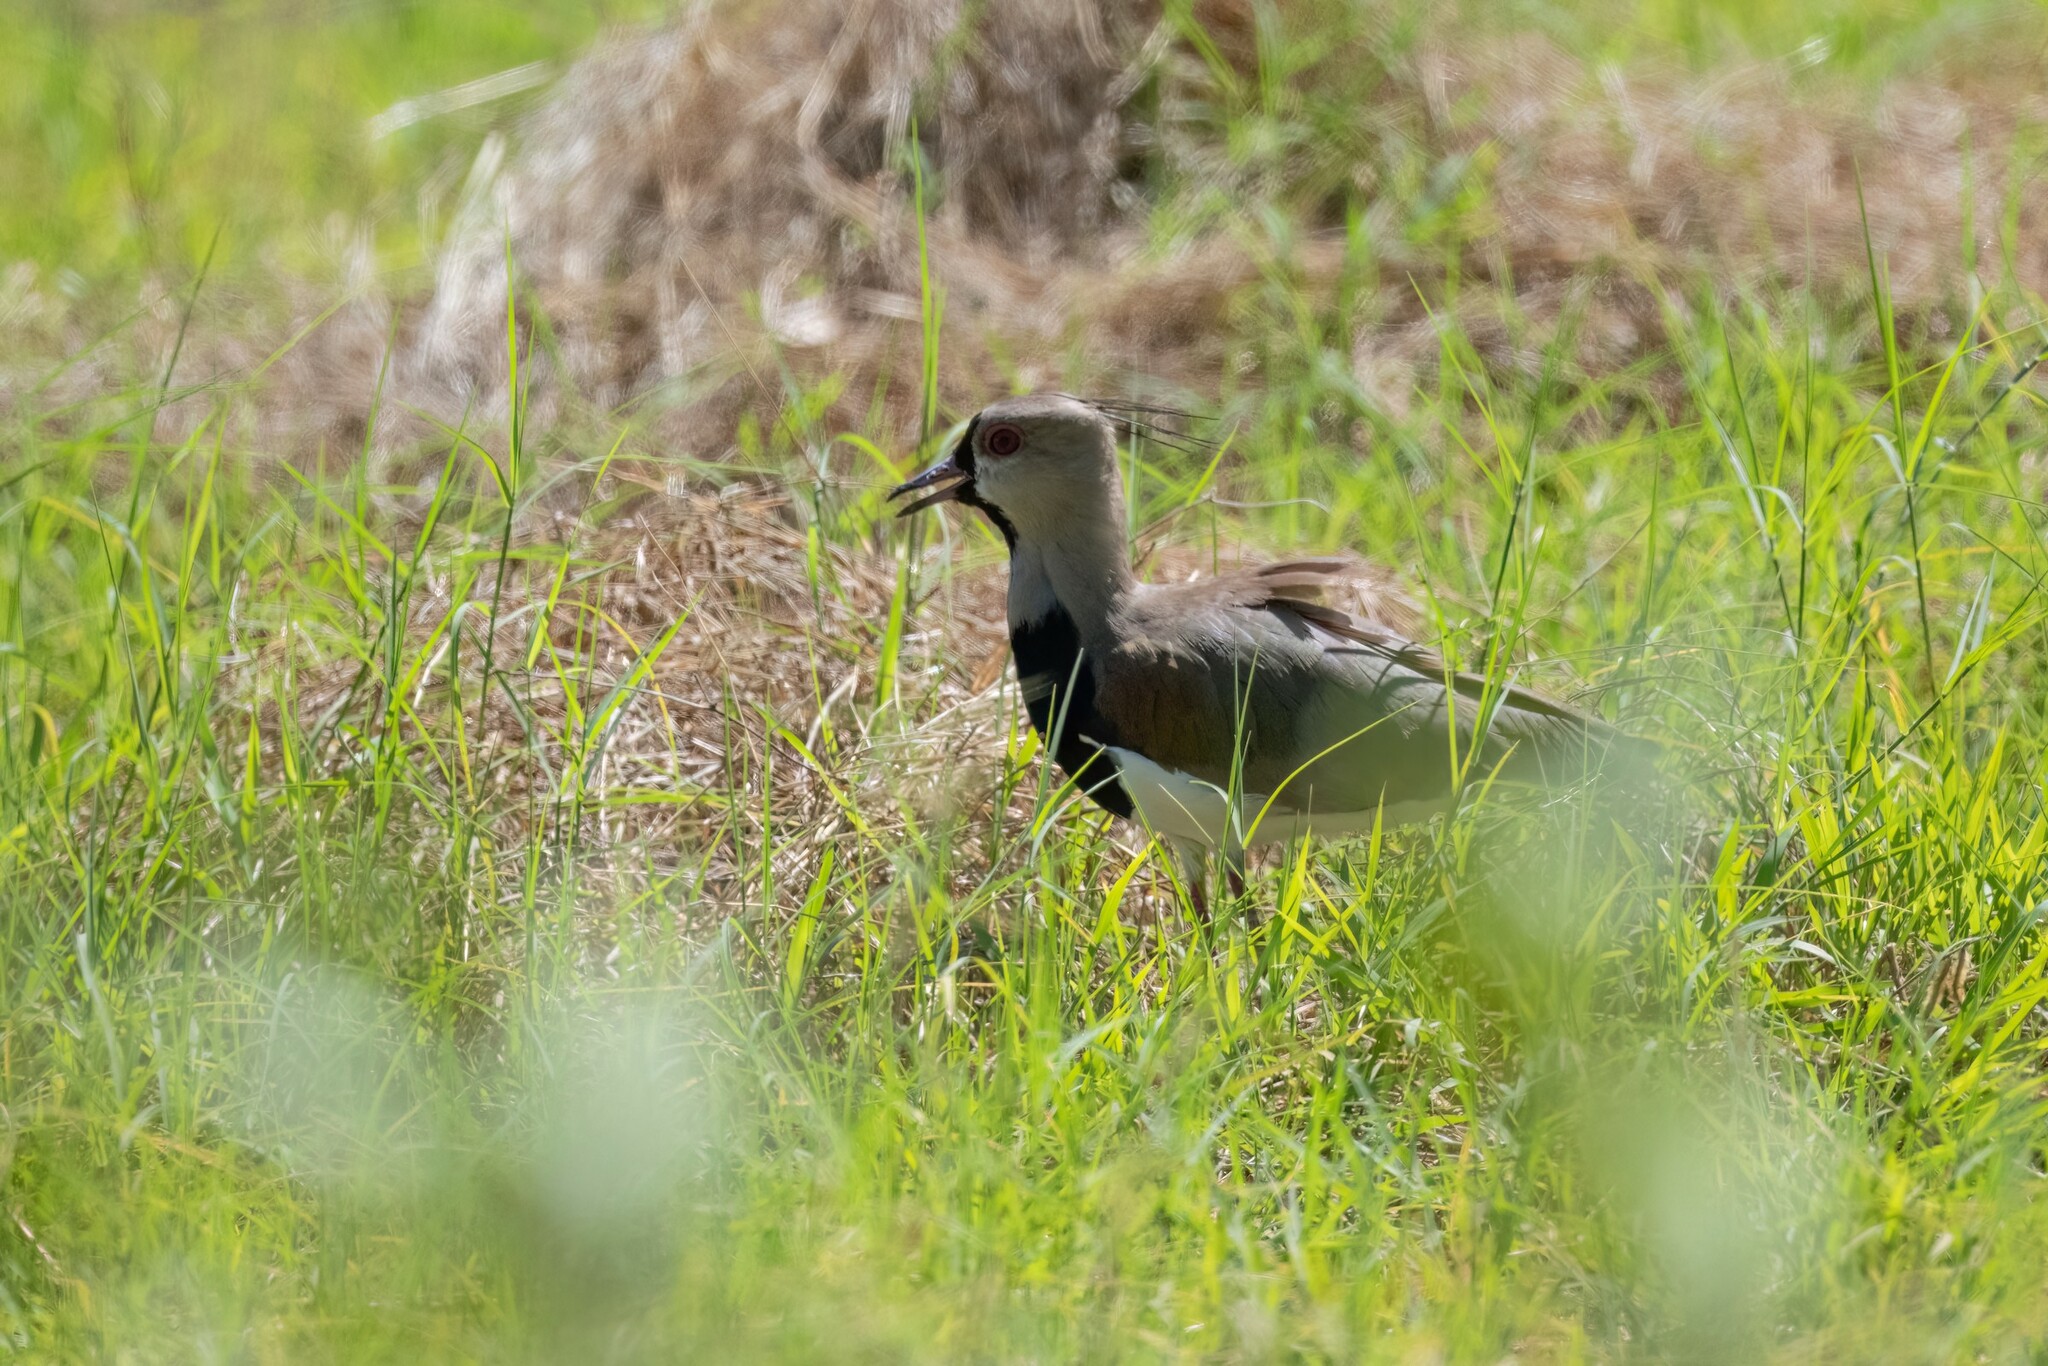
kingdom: Animalia
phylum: Chordata
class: Aves
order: Charadriiformes
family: Charadriidae
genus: Vanellus
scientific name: Vanellus chilensis
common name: Southern lapwing
